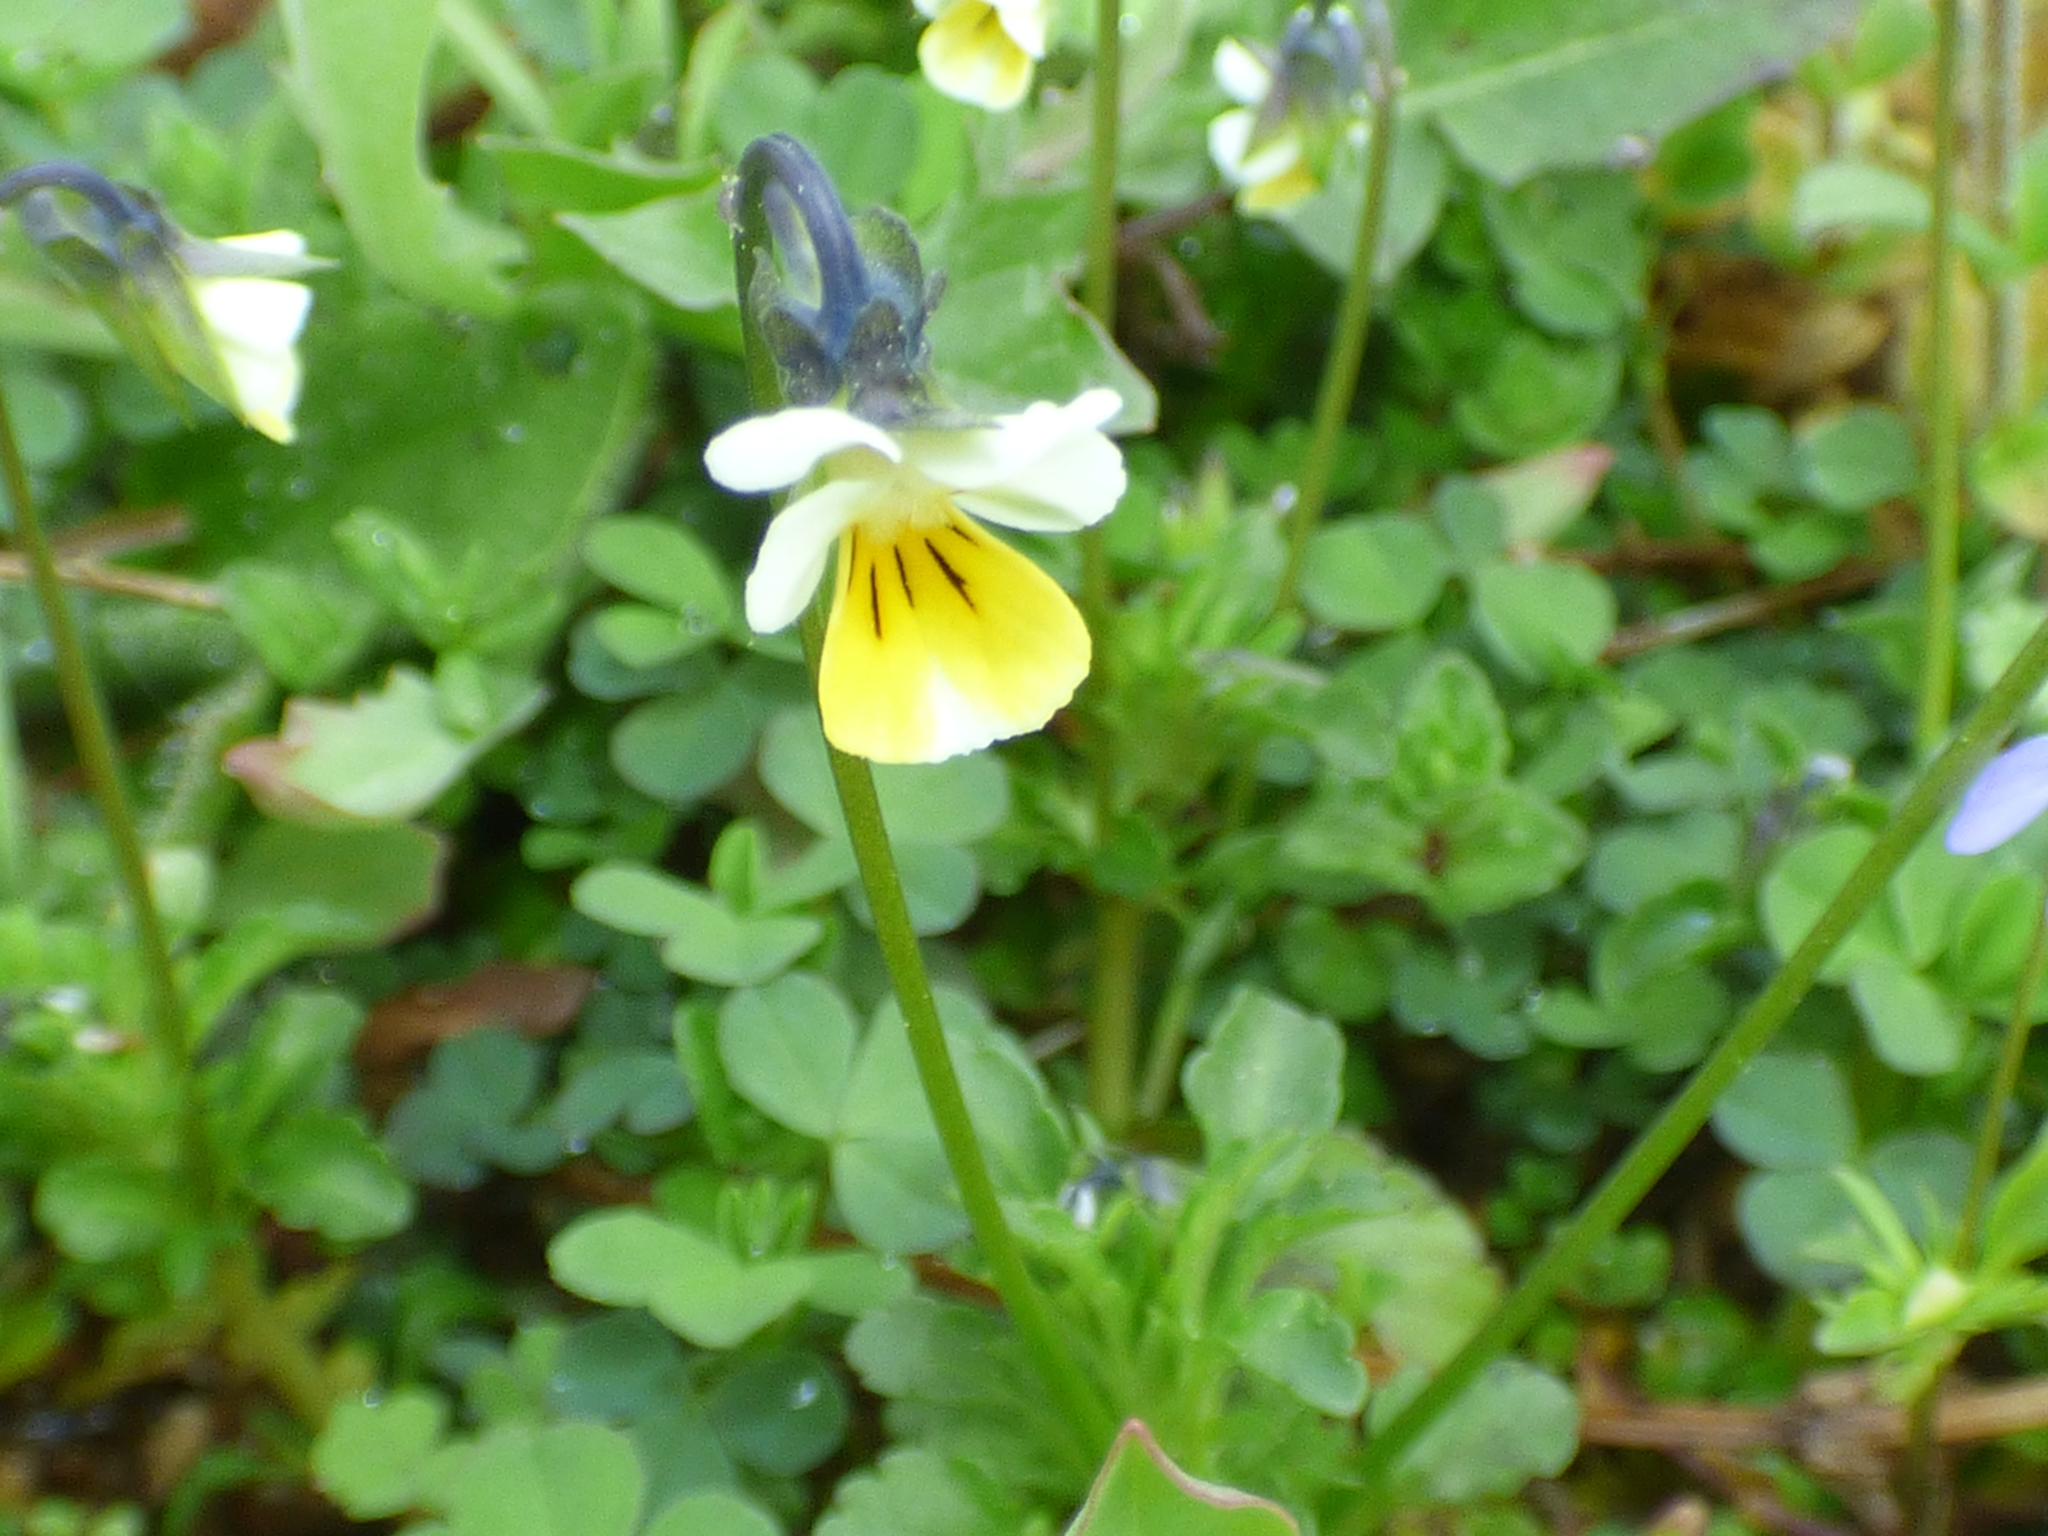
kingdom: Plantae
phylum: Tracheophyta
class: Magnoliopsida
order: Malpighiales
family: Violaceae
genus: Viola
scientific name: Viola arvensis
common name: Field pansy
